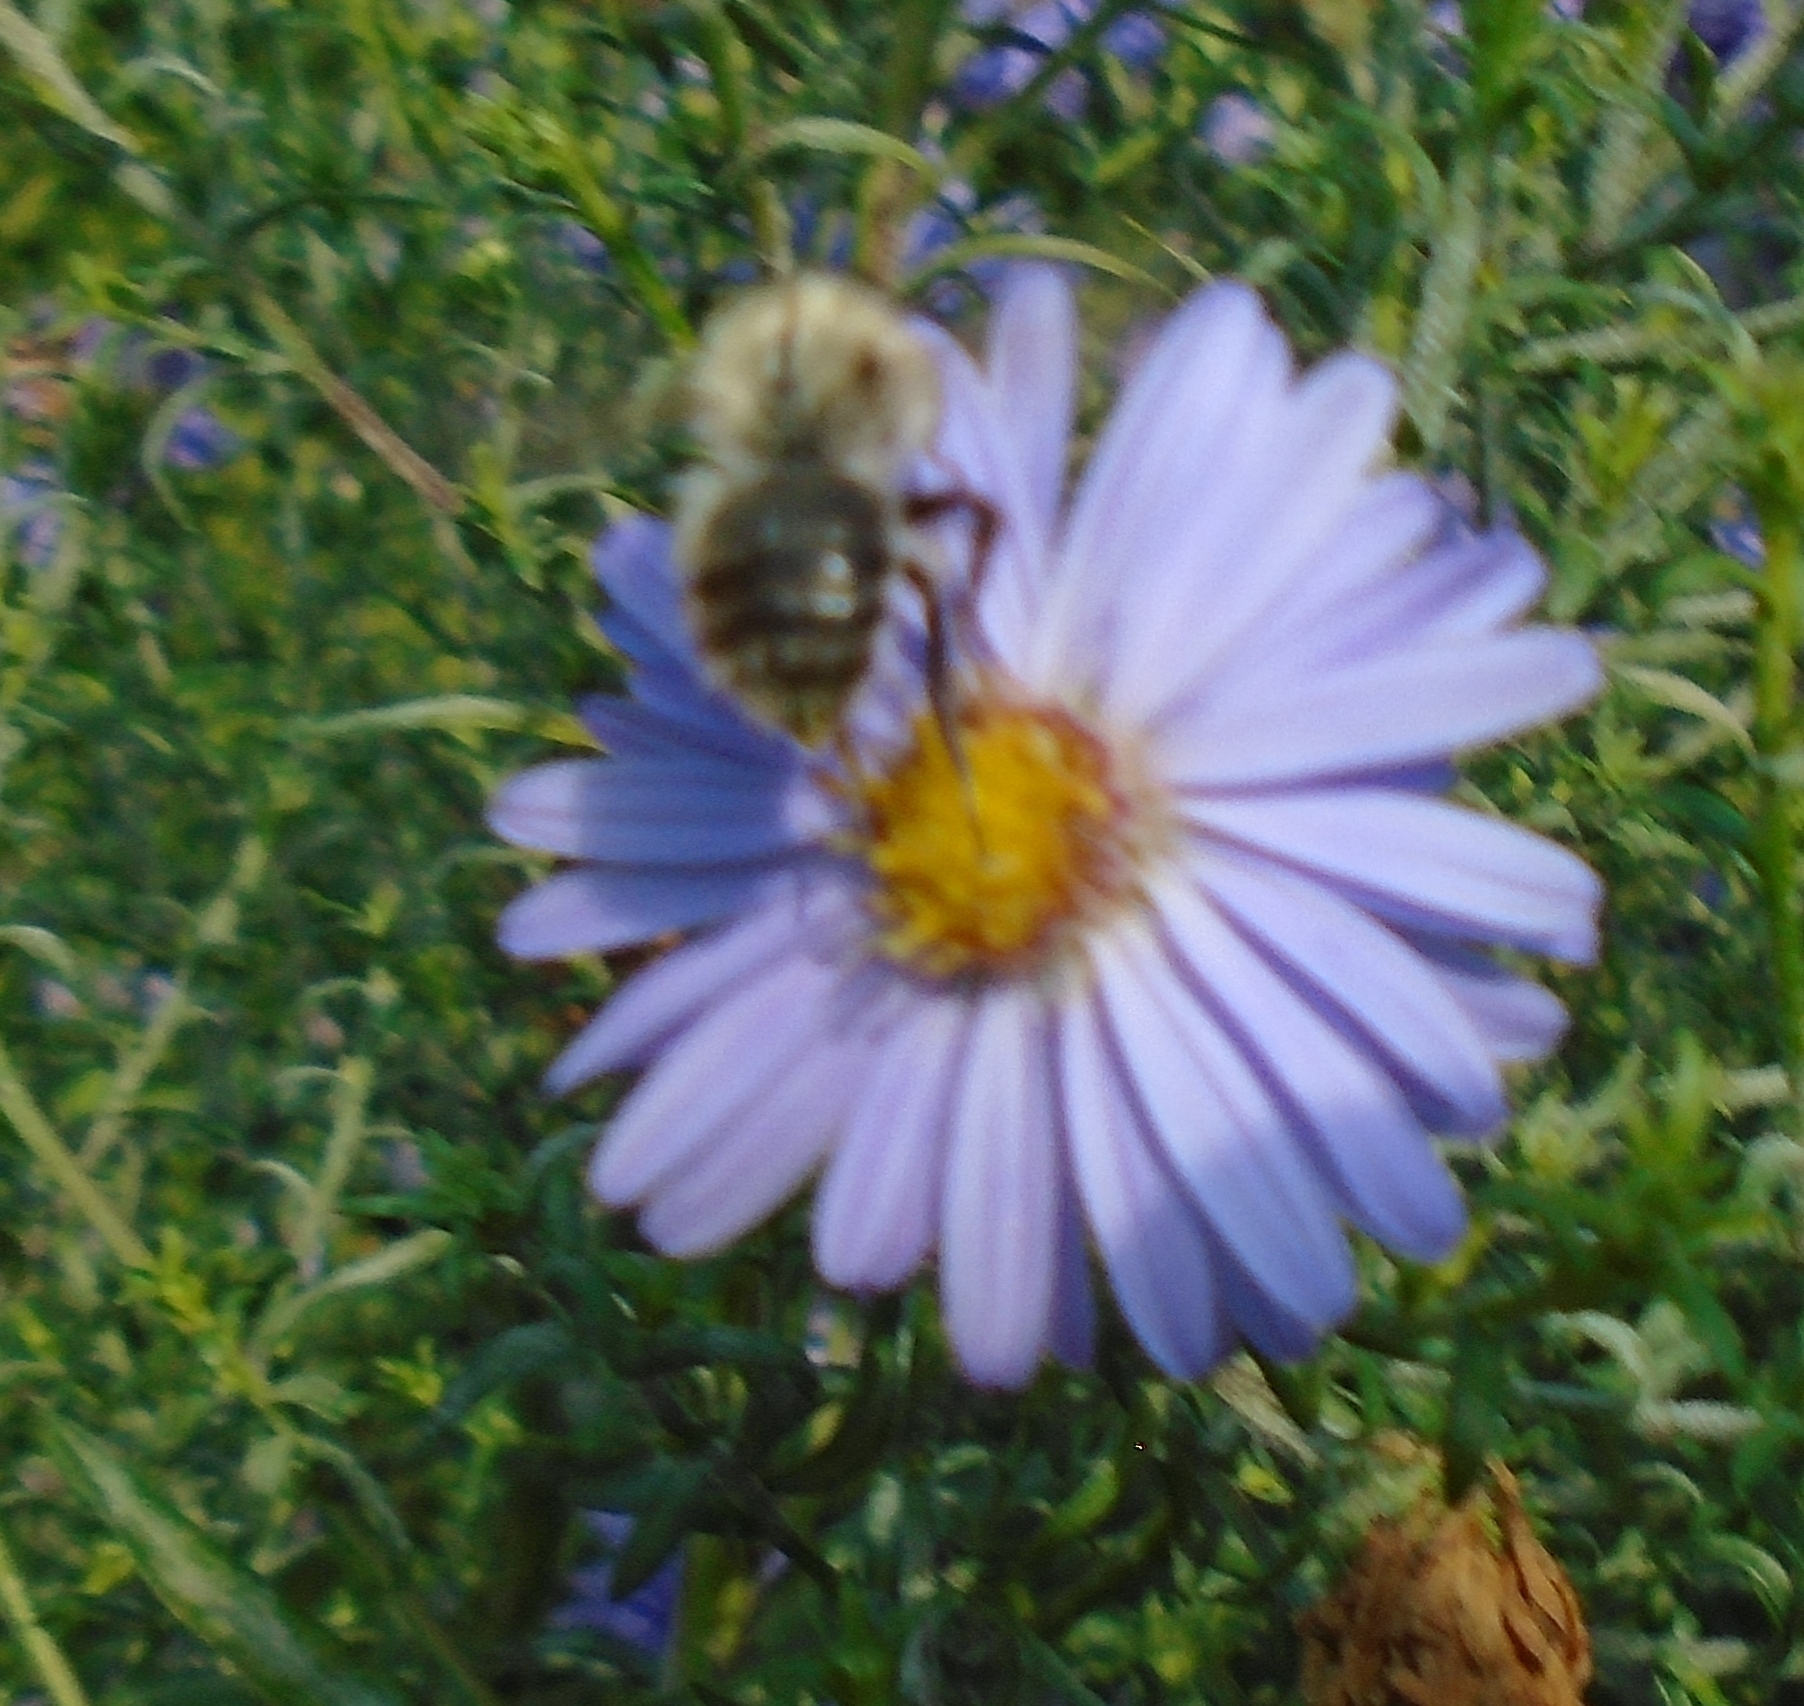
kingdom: Animalia
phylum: Arthropoda
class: Insecta
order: Hymenoptera
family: Apidae
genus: Bombus
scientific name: Bombus pascuorum
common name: Common carder bee
